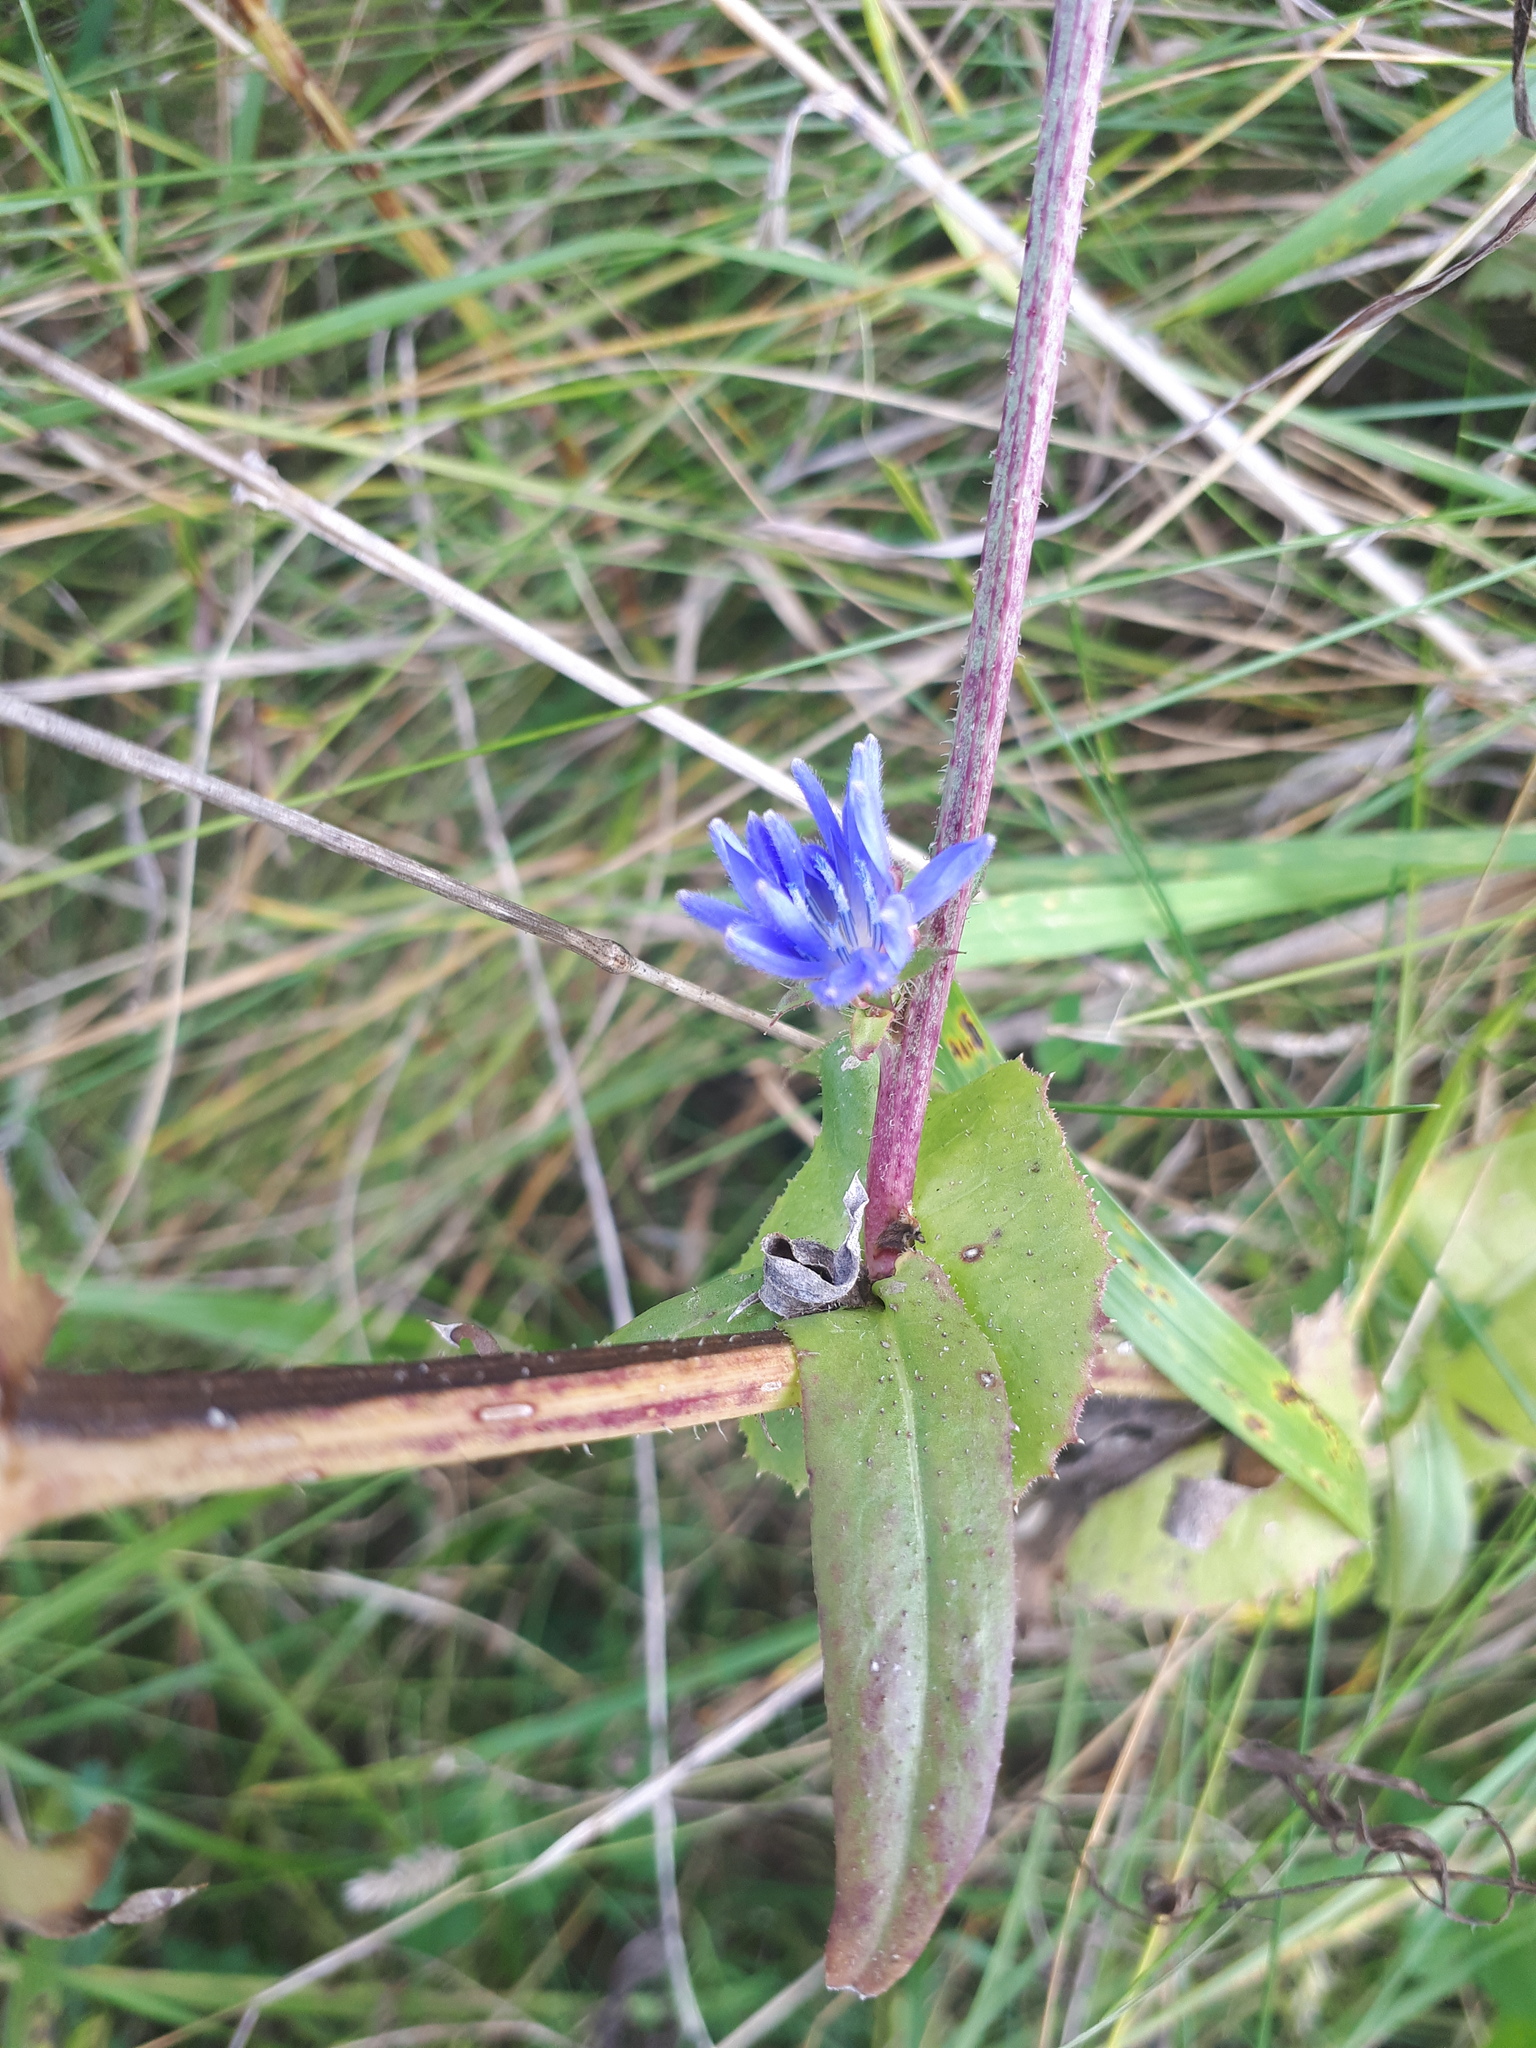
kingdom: Plantae
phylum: Tracheophyta
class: Magnoliopsida
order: Asterales
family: Asteraceae
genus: Cichorium
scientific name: Cichorium intybus
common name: Chicory
